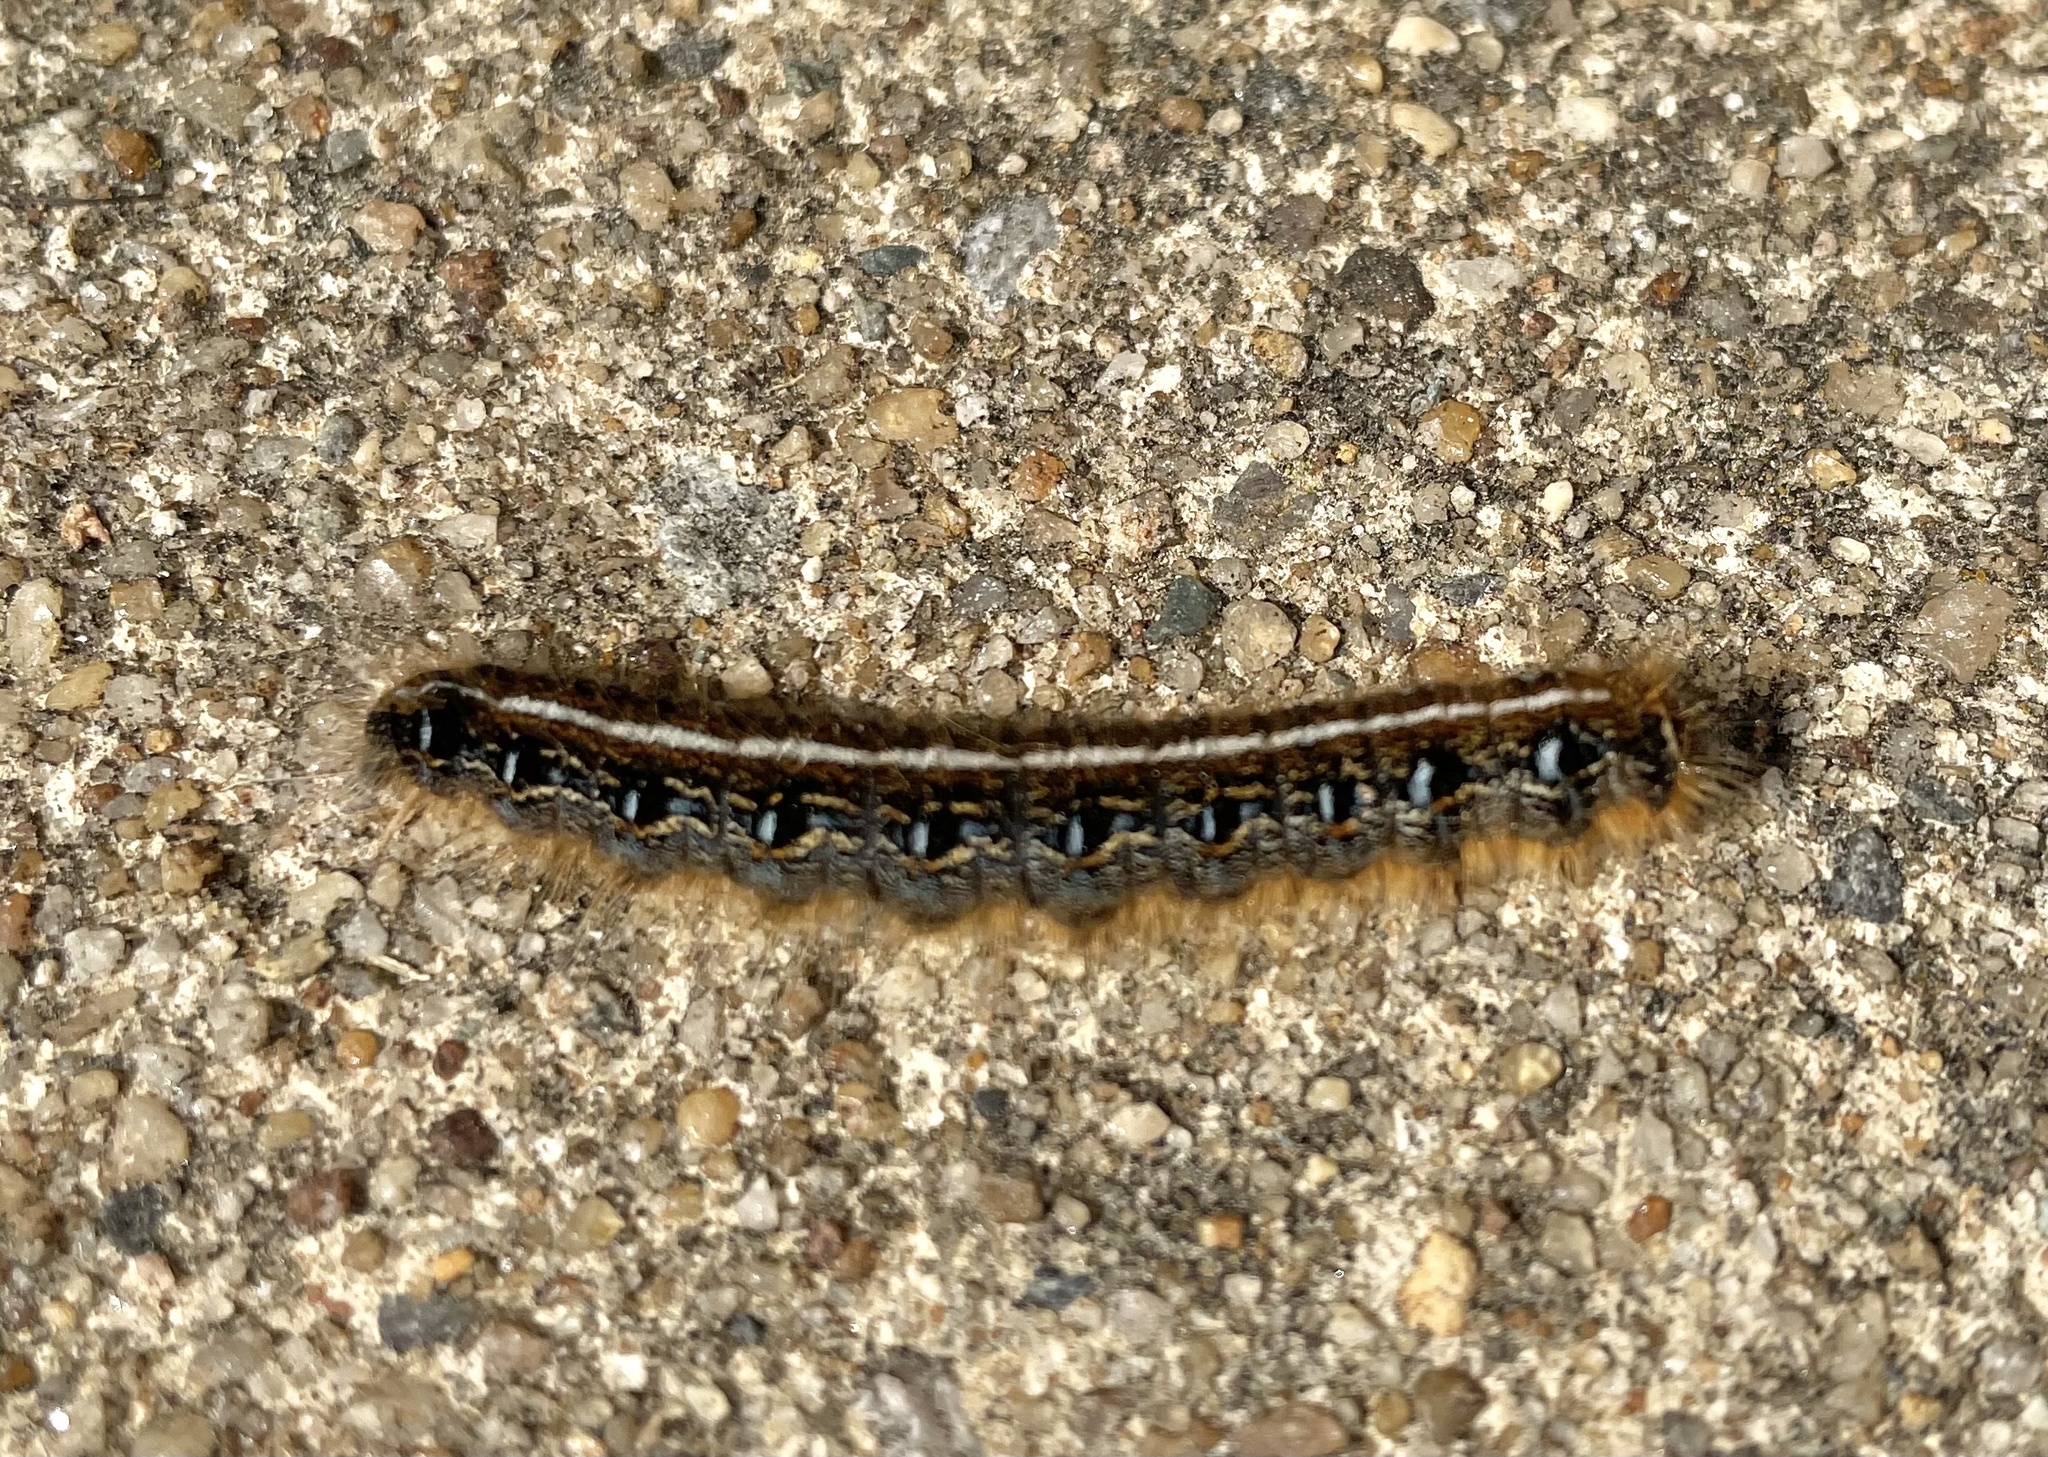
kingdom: Animalia
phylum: Arthropoda
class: Insecta
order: Lepidoptera
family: Lasiocampidae
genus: Malacosoma
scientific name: Malacosoma americana
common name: Eastern tent caterpillar moth
